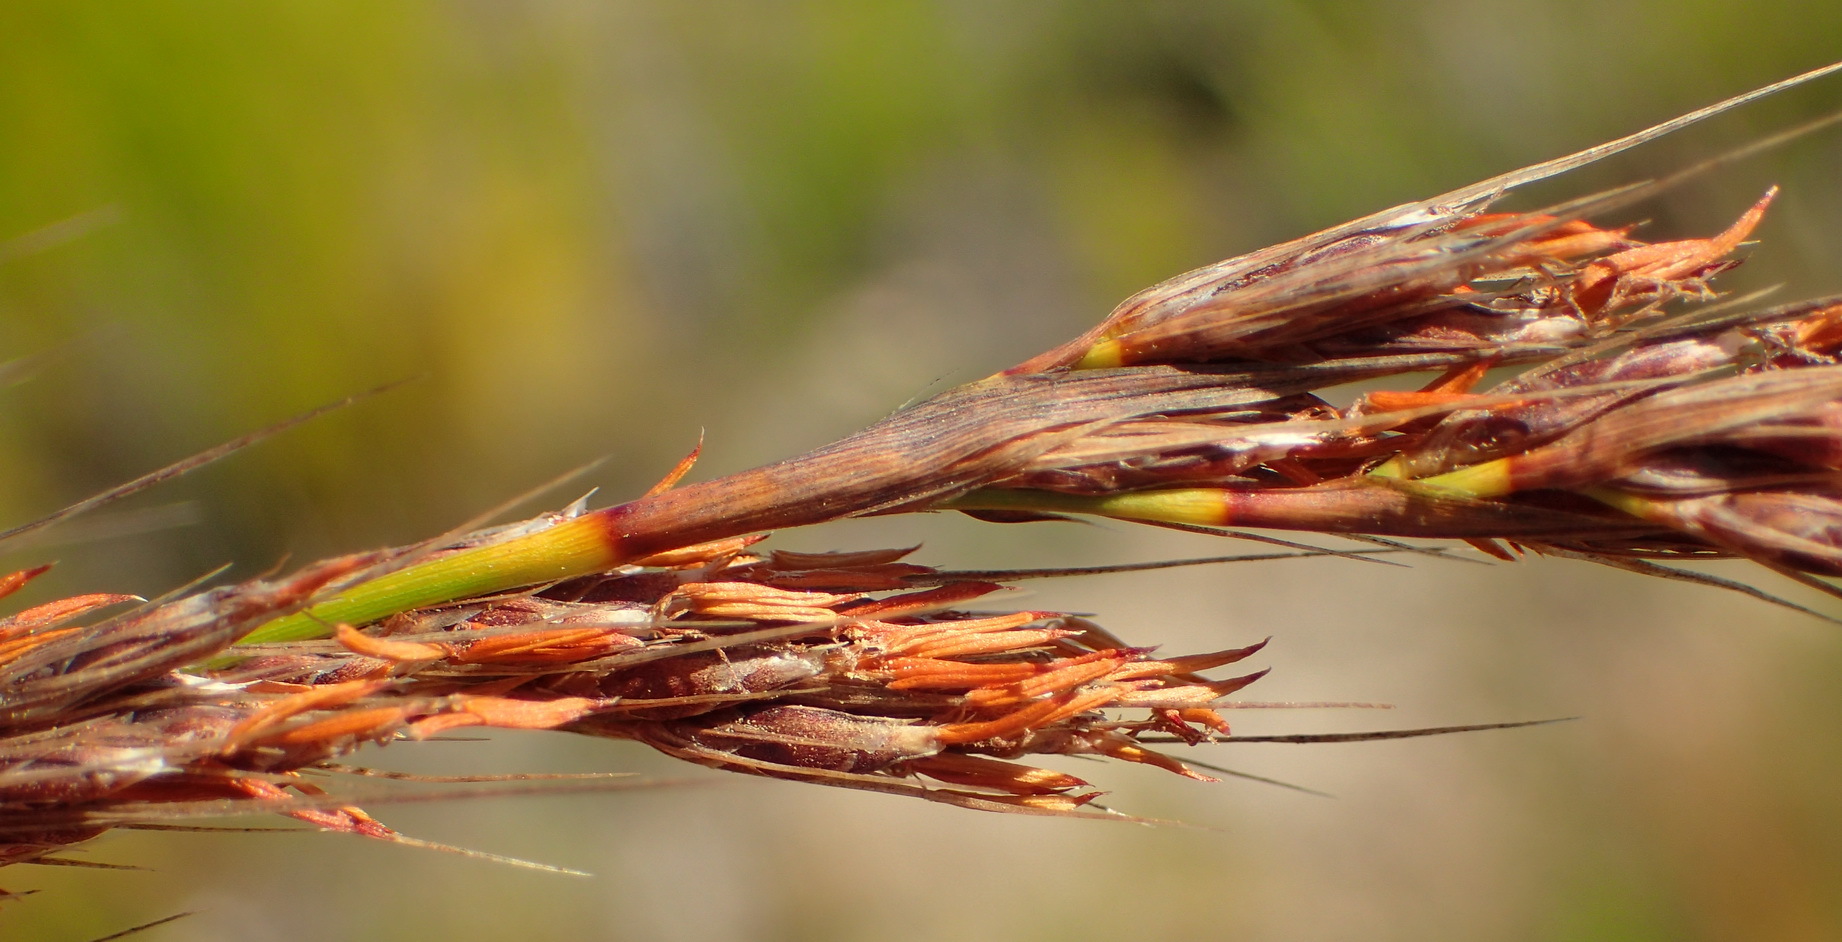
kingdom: Plantae
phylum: Tracheophyta
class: Liliopsida
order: Poales
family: Cyperaceae
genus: Tetraria
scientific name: Tetraria involucrata
